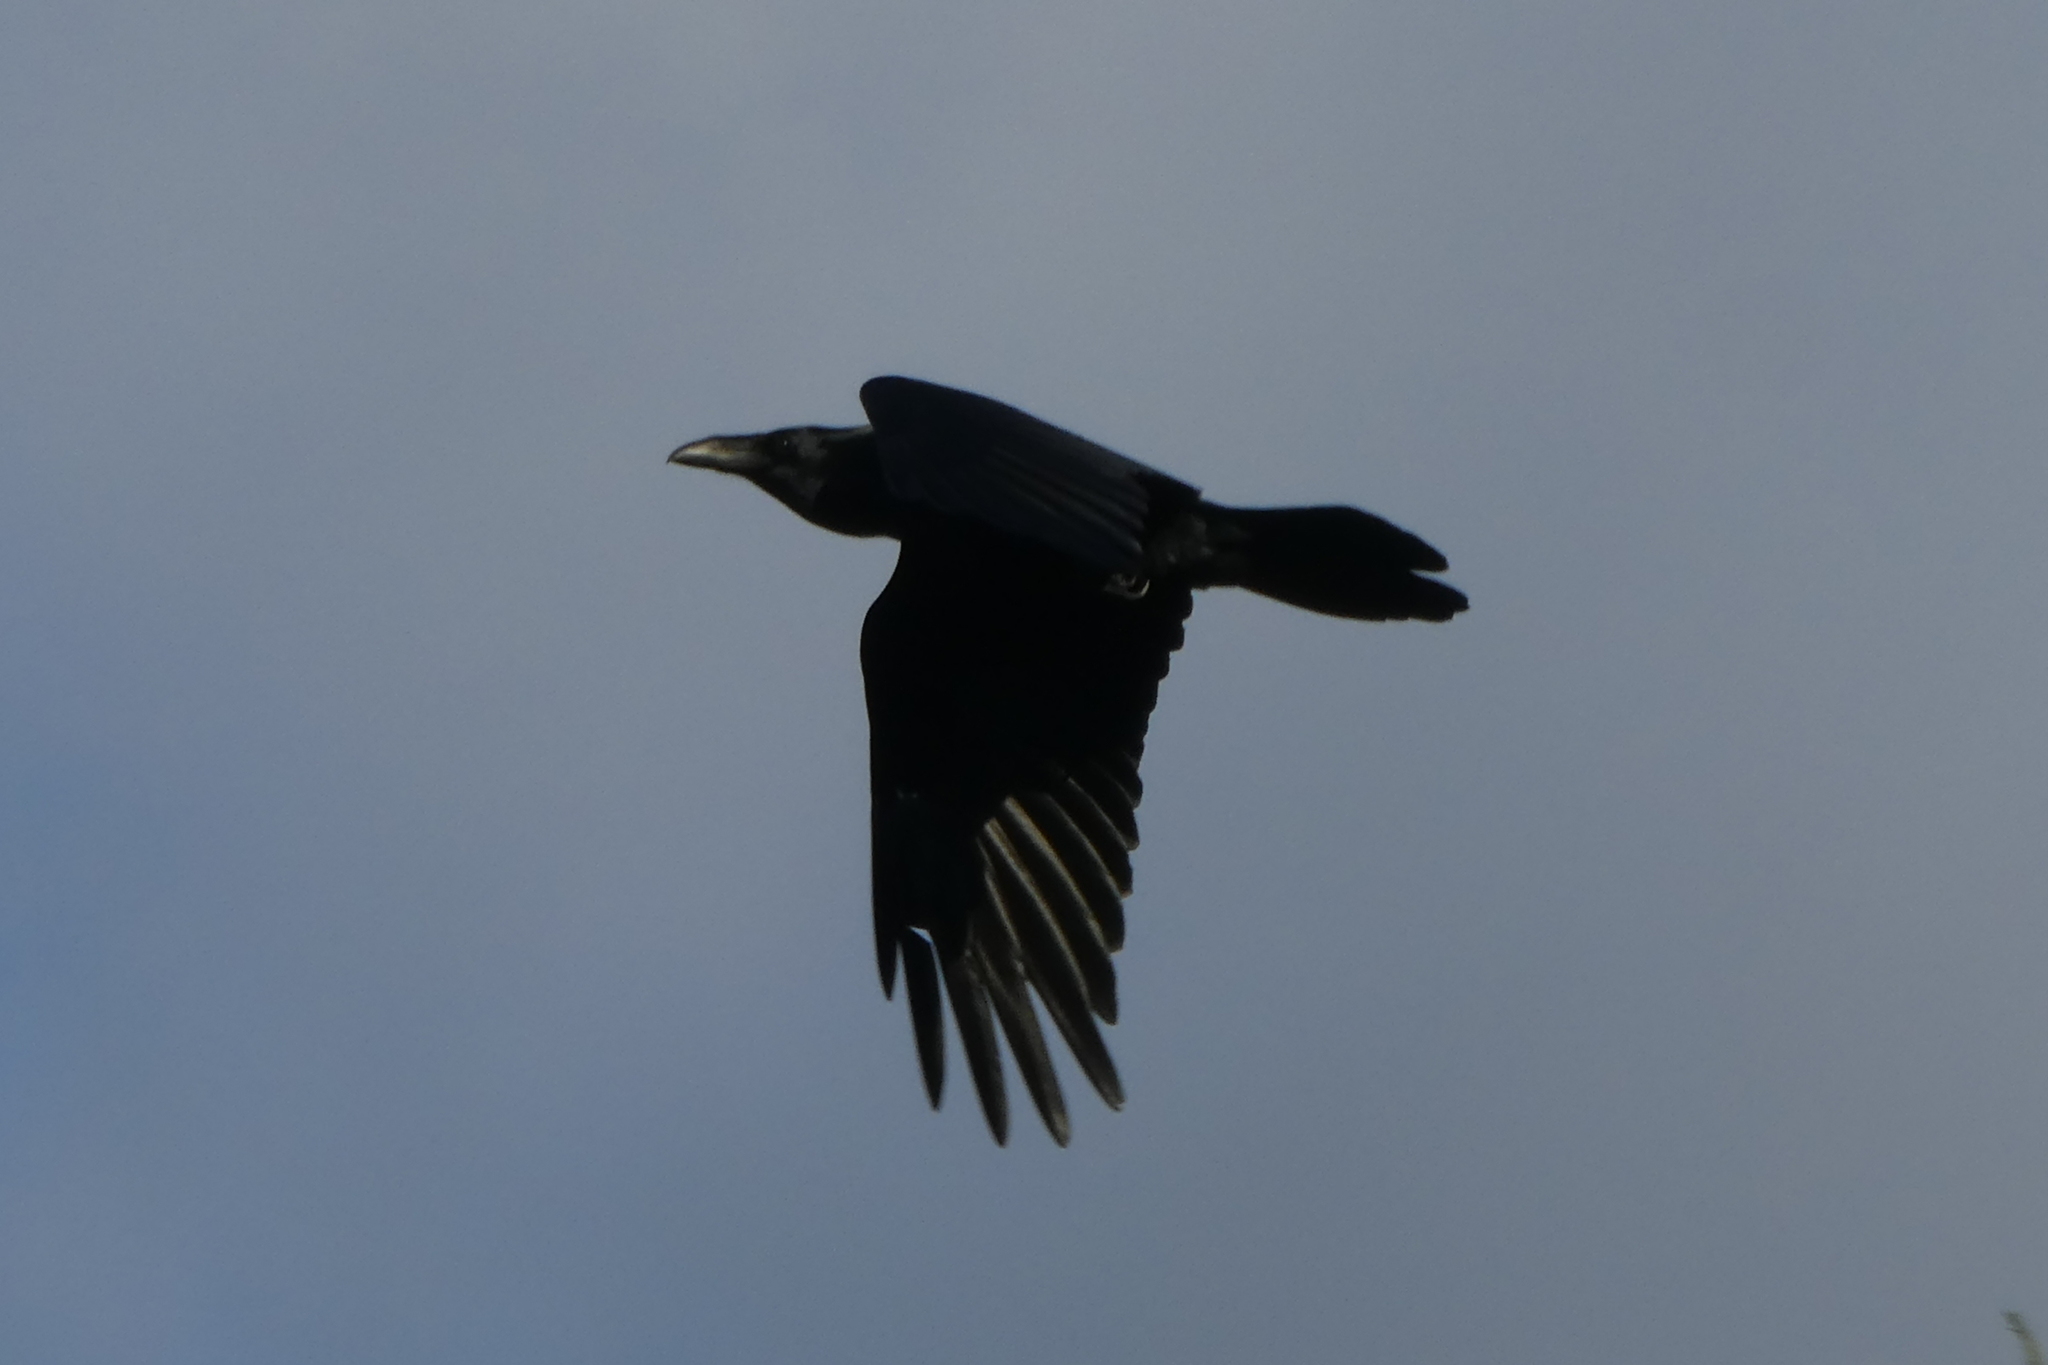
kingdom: Animalia
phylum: Chordata
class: Aves
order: Passeriformes
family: Corvidae
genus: Corvus
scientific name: Corvus corax
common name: Common raven
